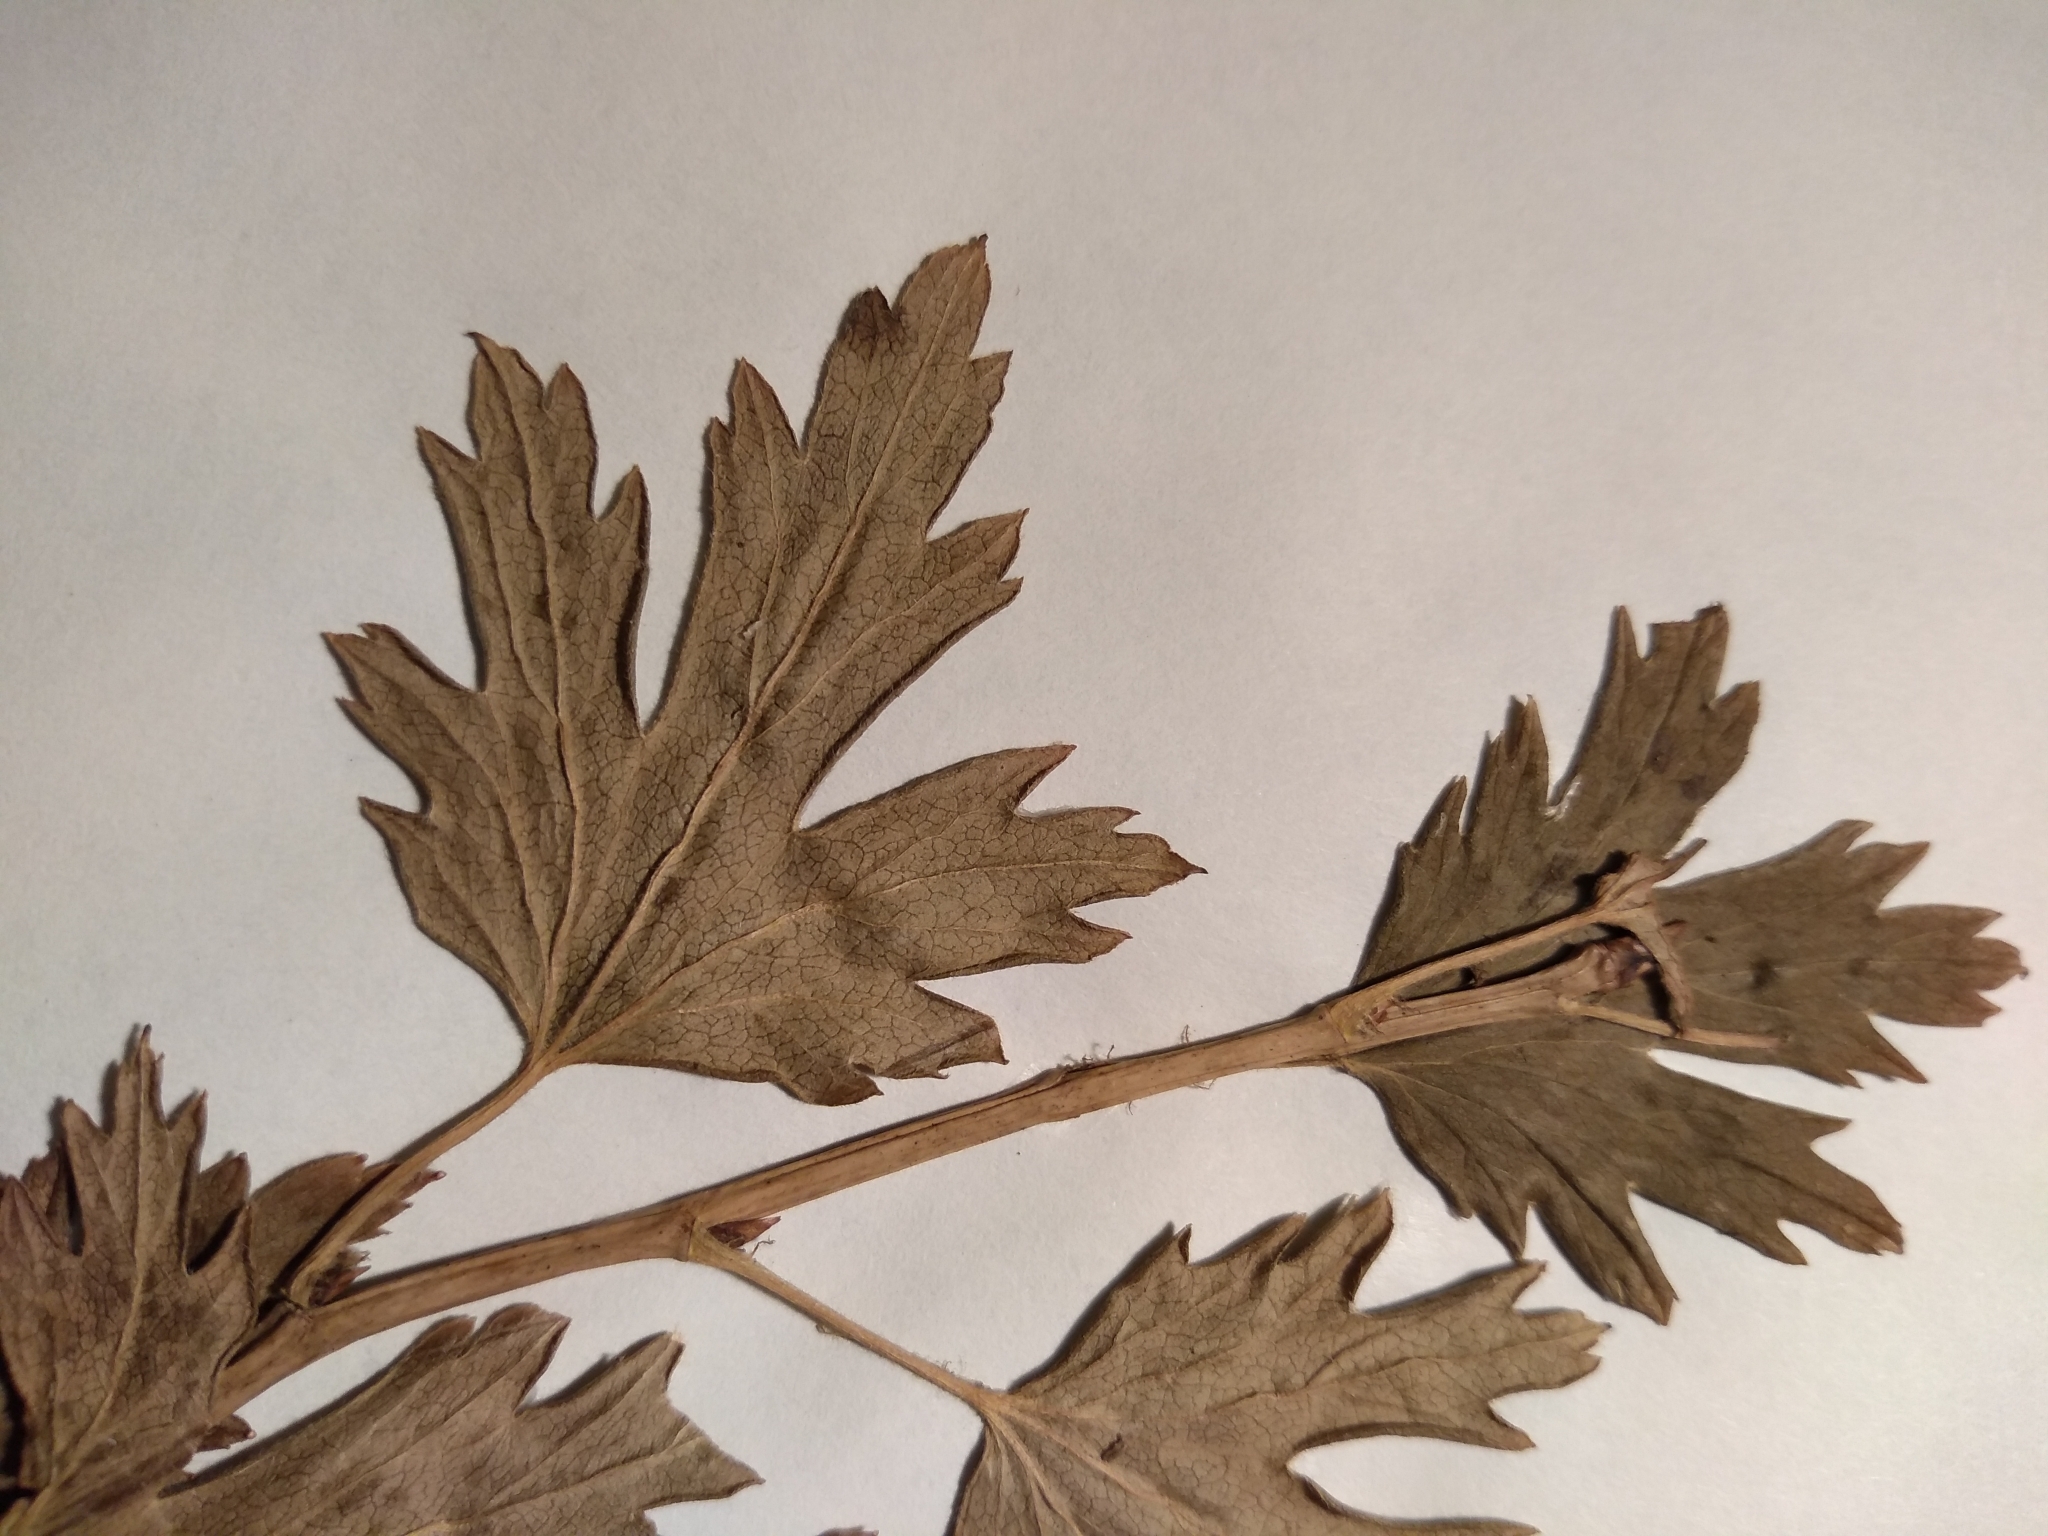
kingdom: Plantae
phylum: Tracheophyta
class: Magnoliopsida
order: Saxifragales
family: Grossulariaceae
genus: Ribes
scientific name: Ribes hirtellum
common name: Hairy gooseberry
